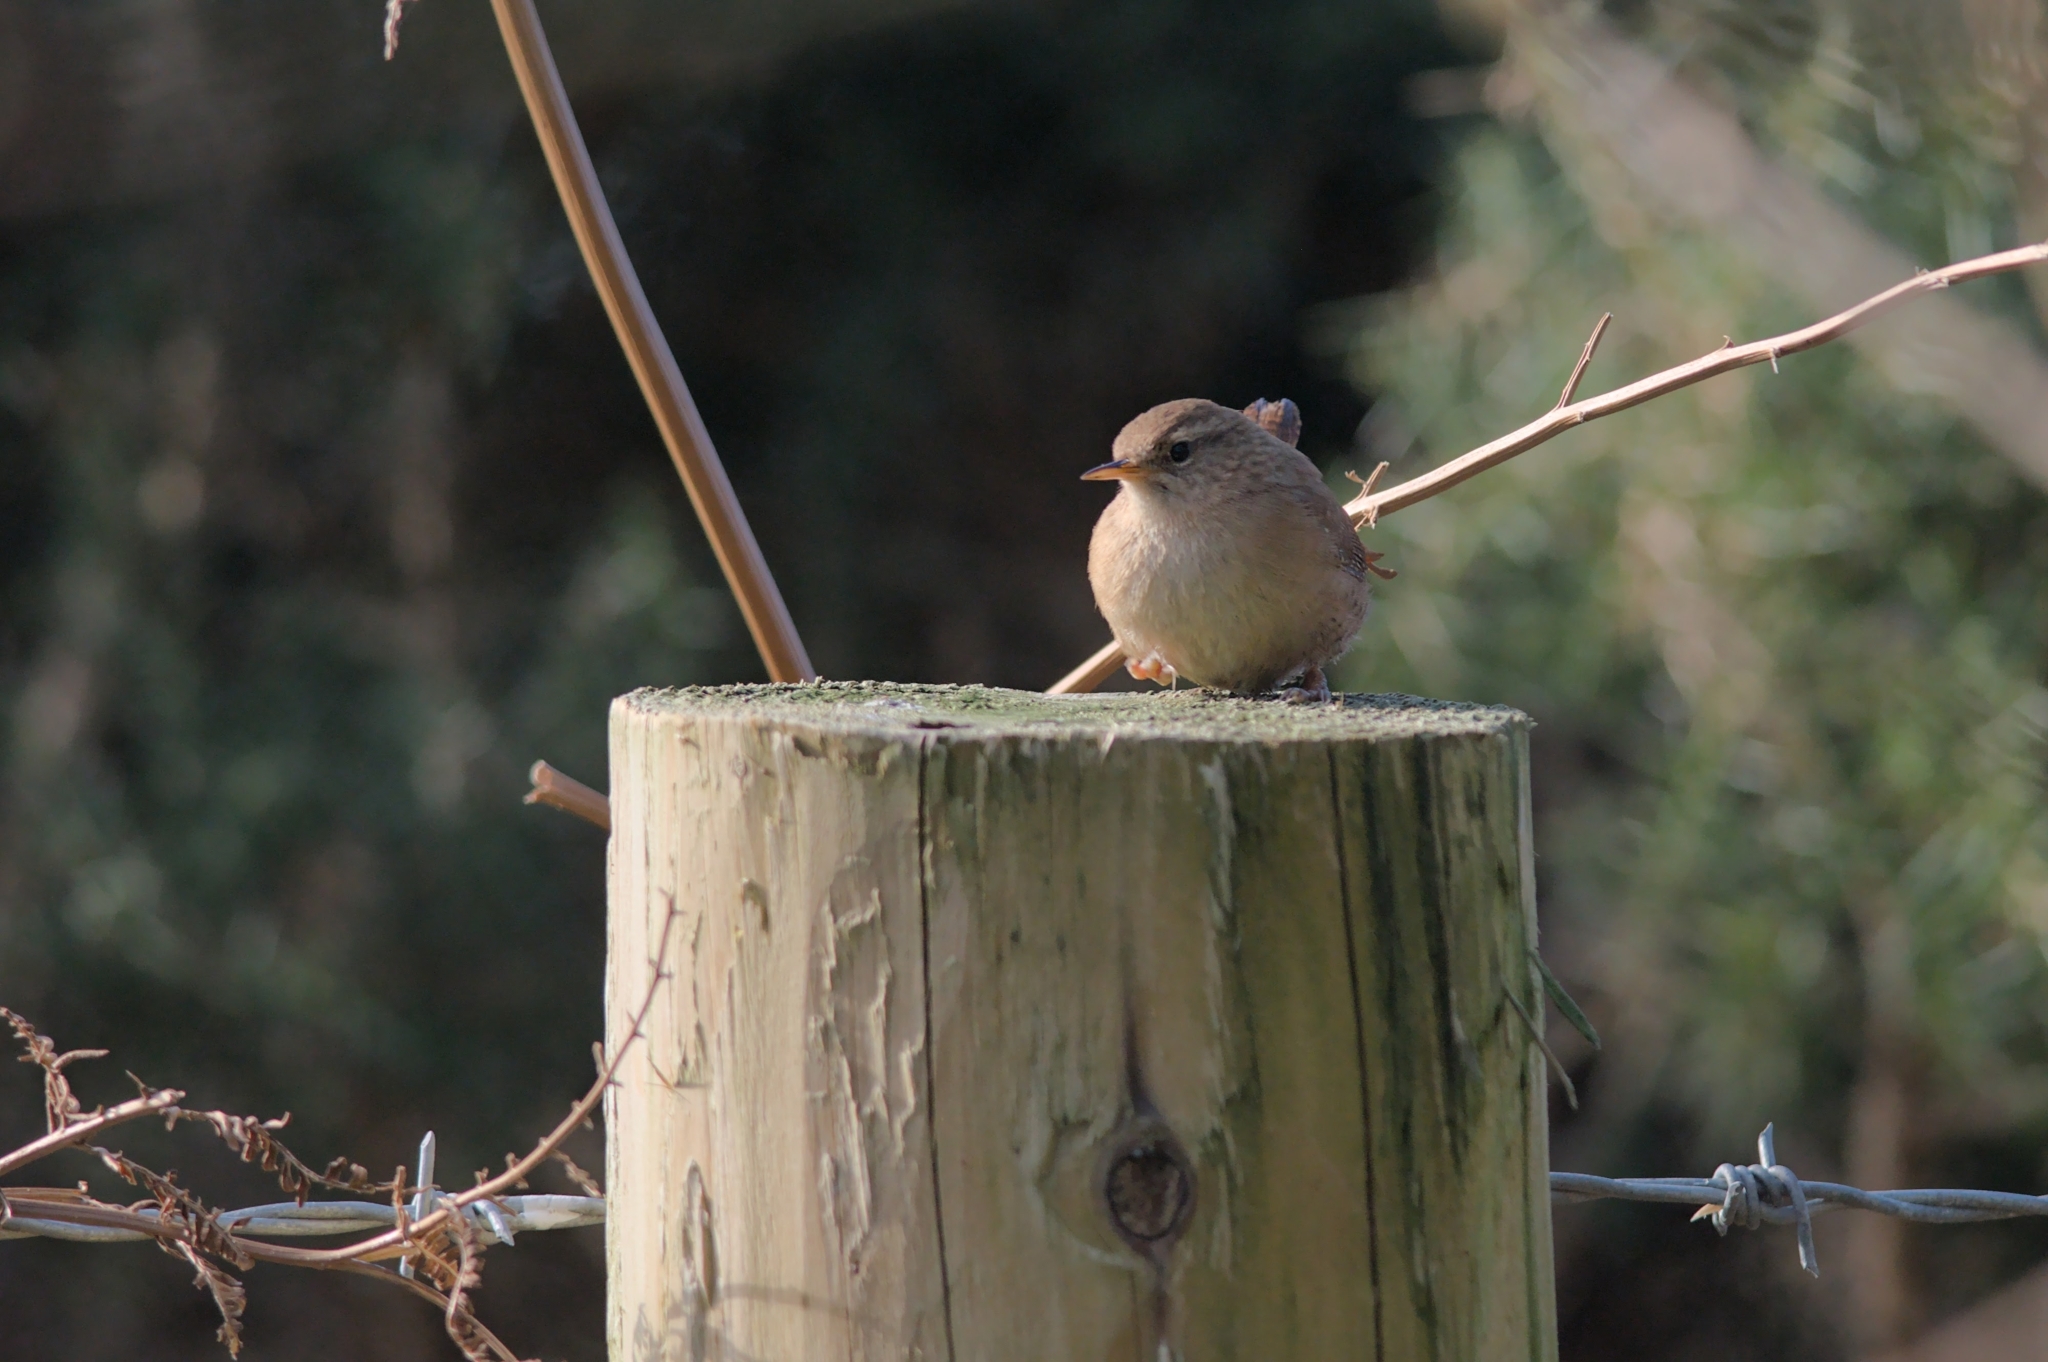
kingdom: Animalia
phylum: Chordata
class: Aves
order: Passeriformes
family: Troglodytidae
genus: Troglodytes
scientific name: Troglodytes troglodytes
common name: Eurasian wren
